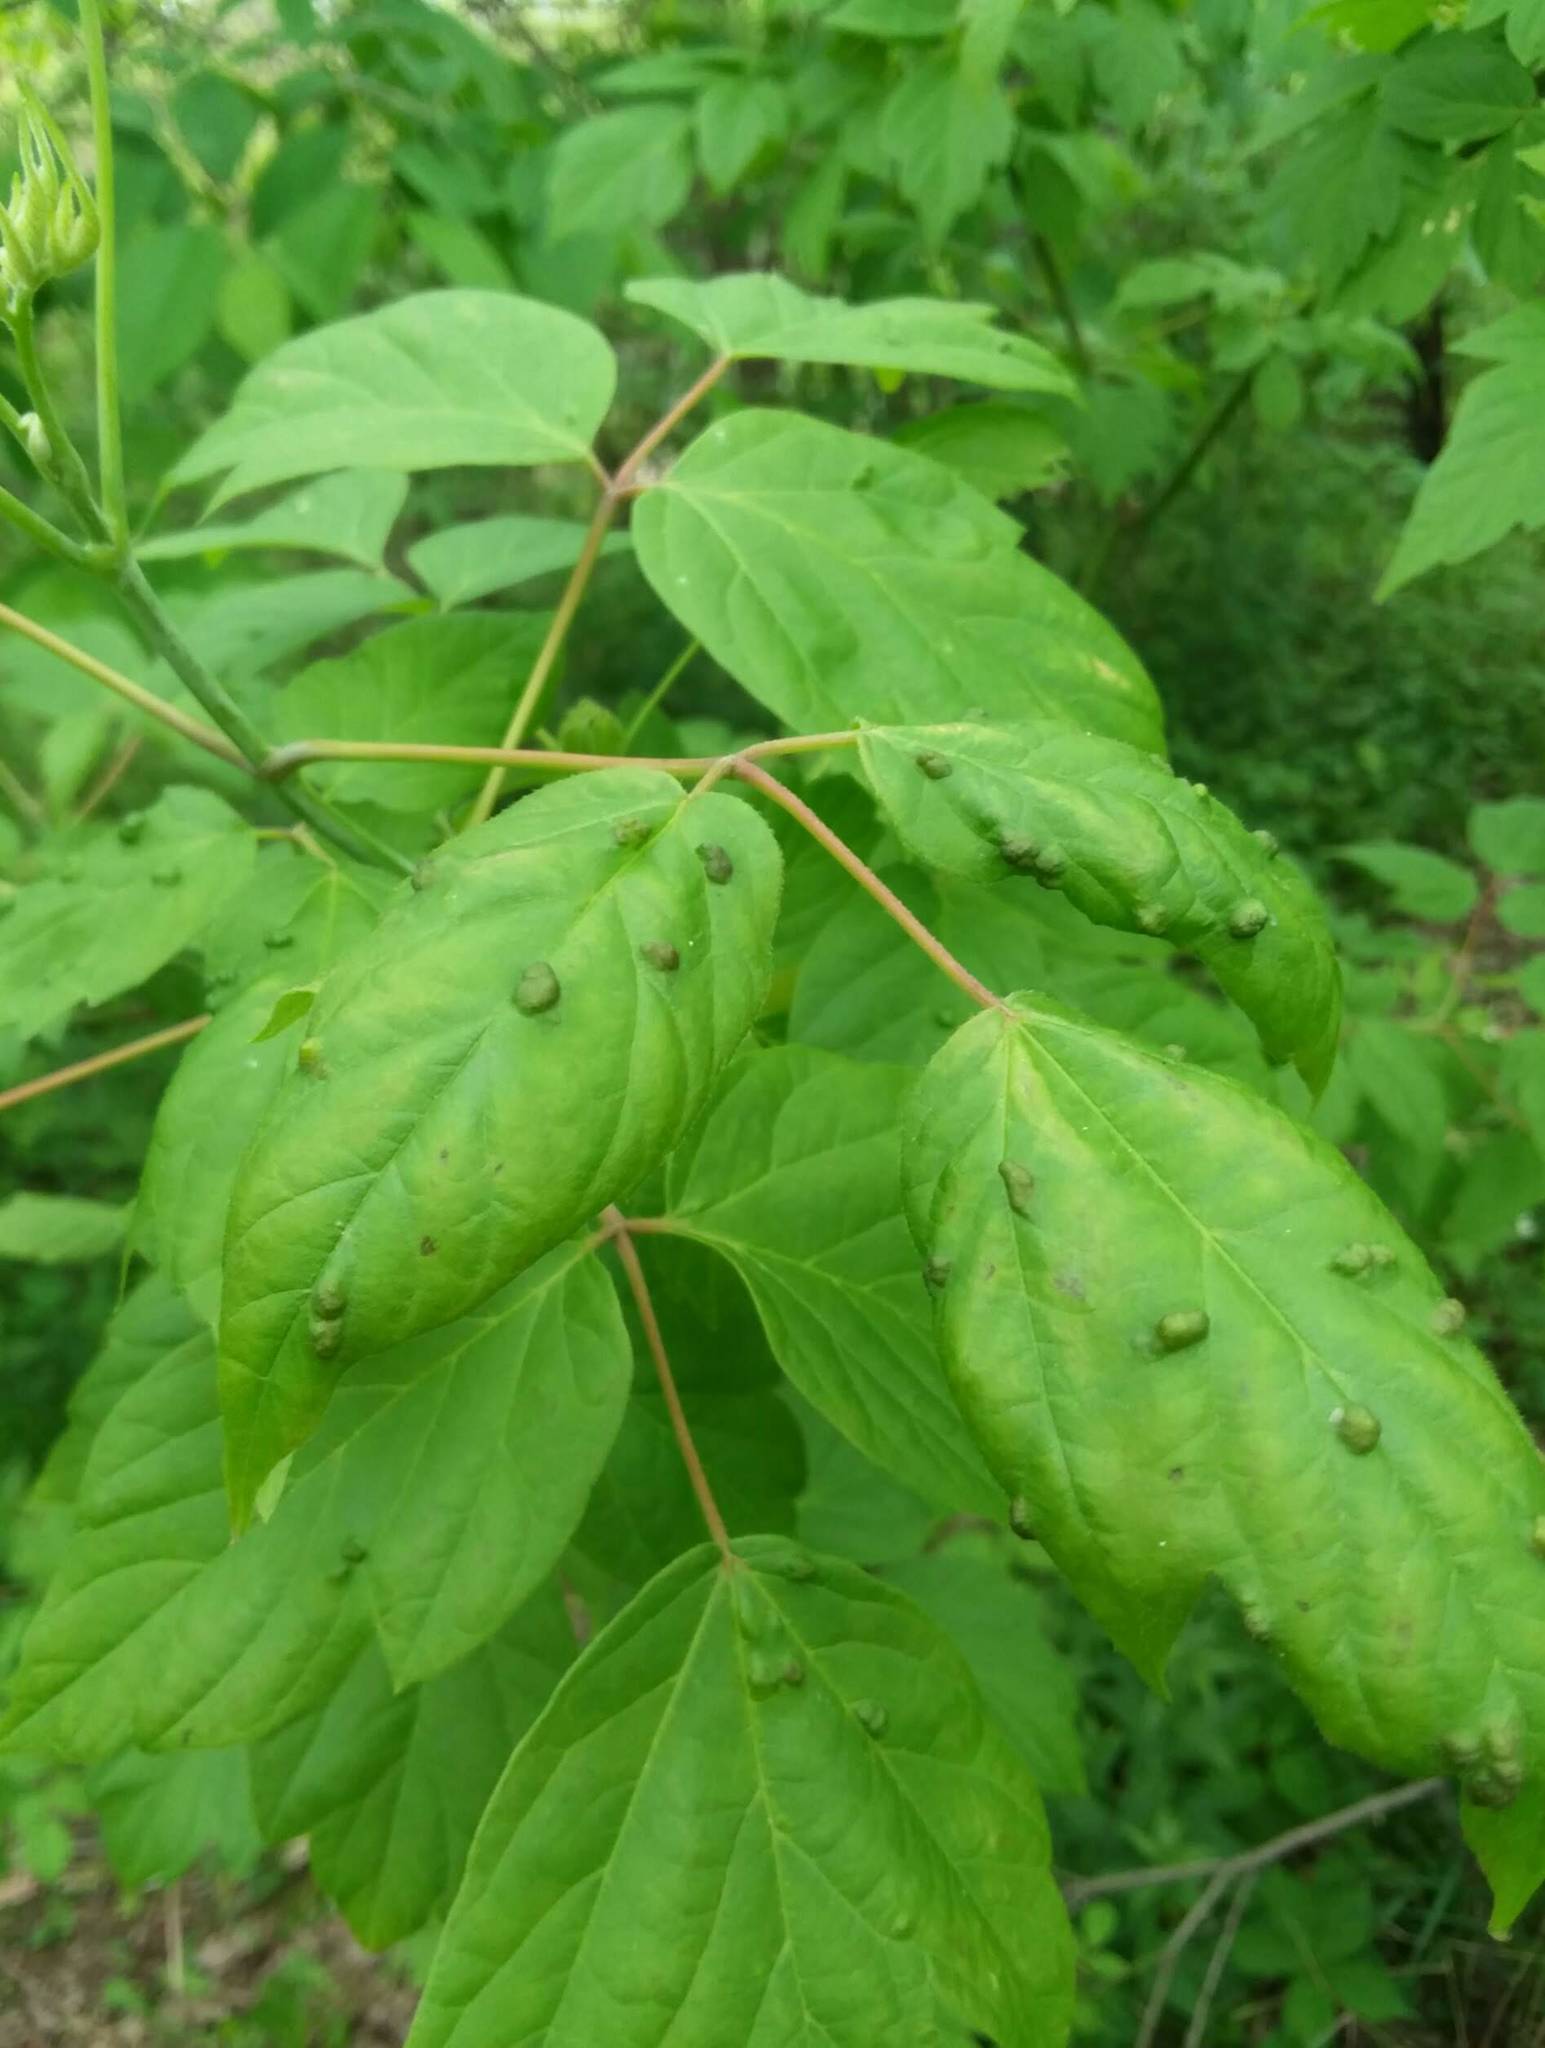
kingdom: Animalia
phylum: Arthropoda
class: Arachnida
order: Trombidiformes
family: Eriophyidae
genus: Aceria
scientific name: Aceria
